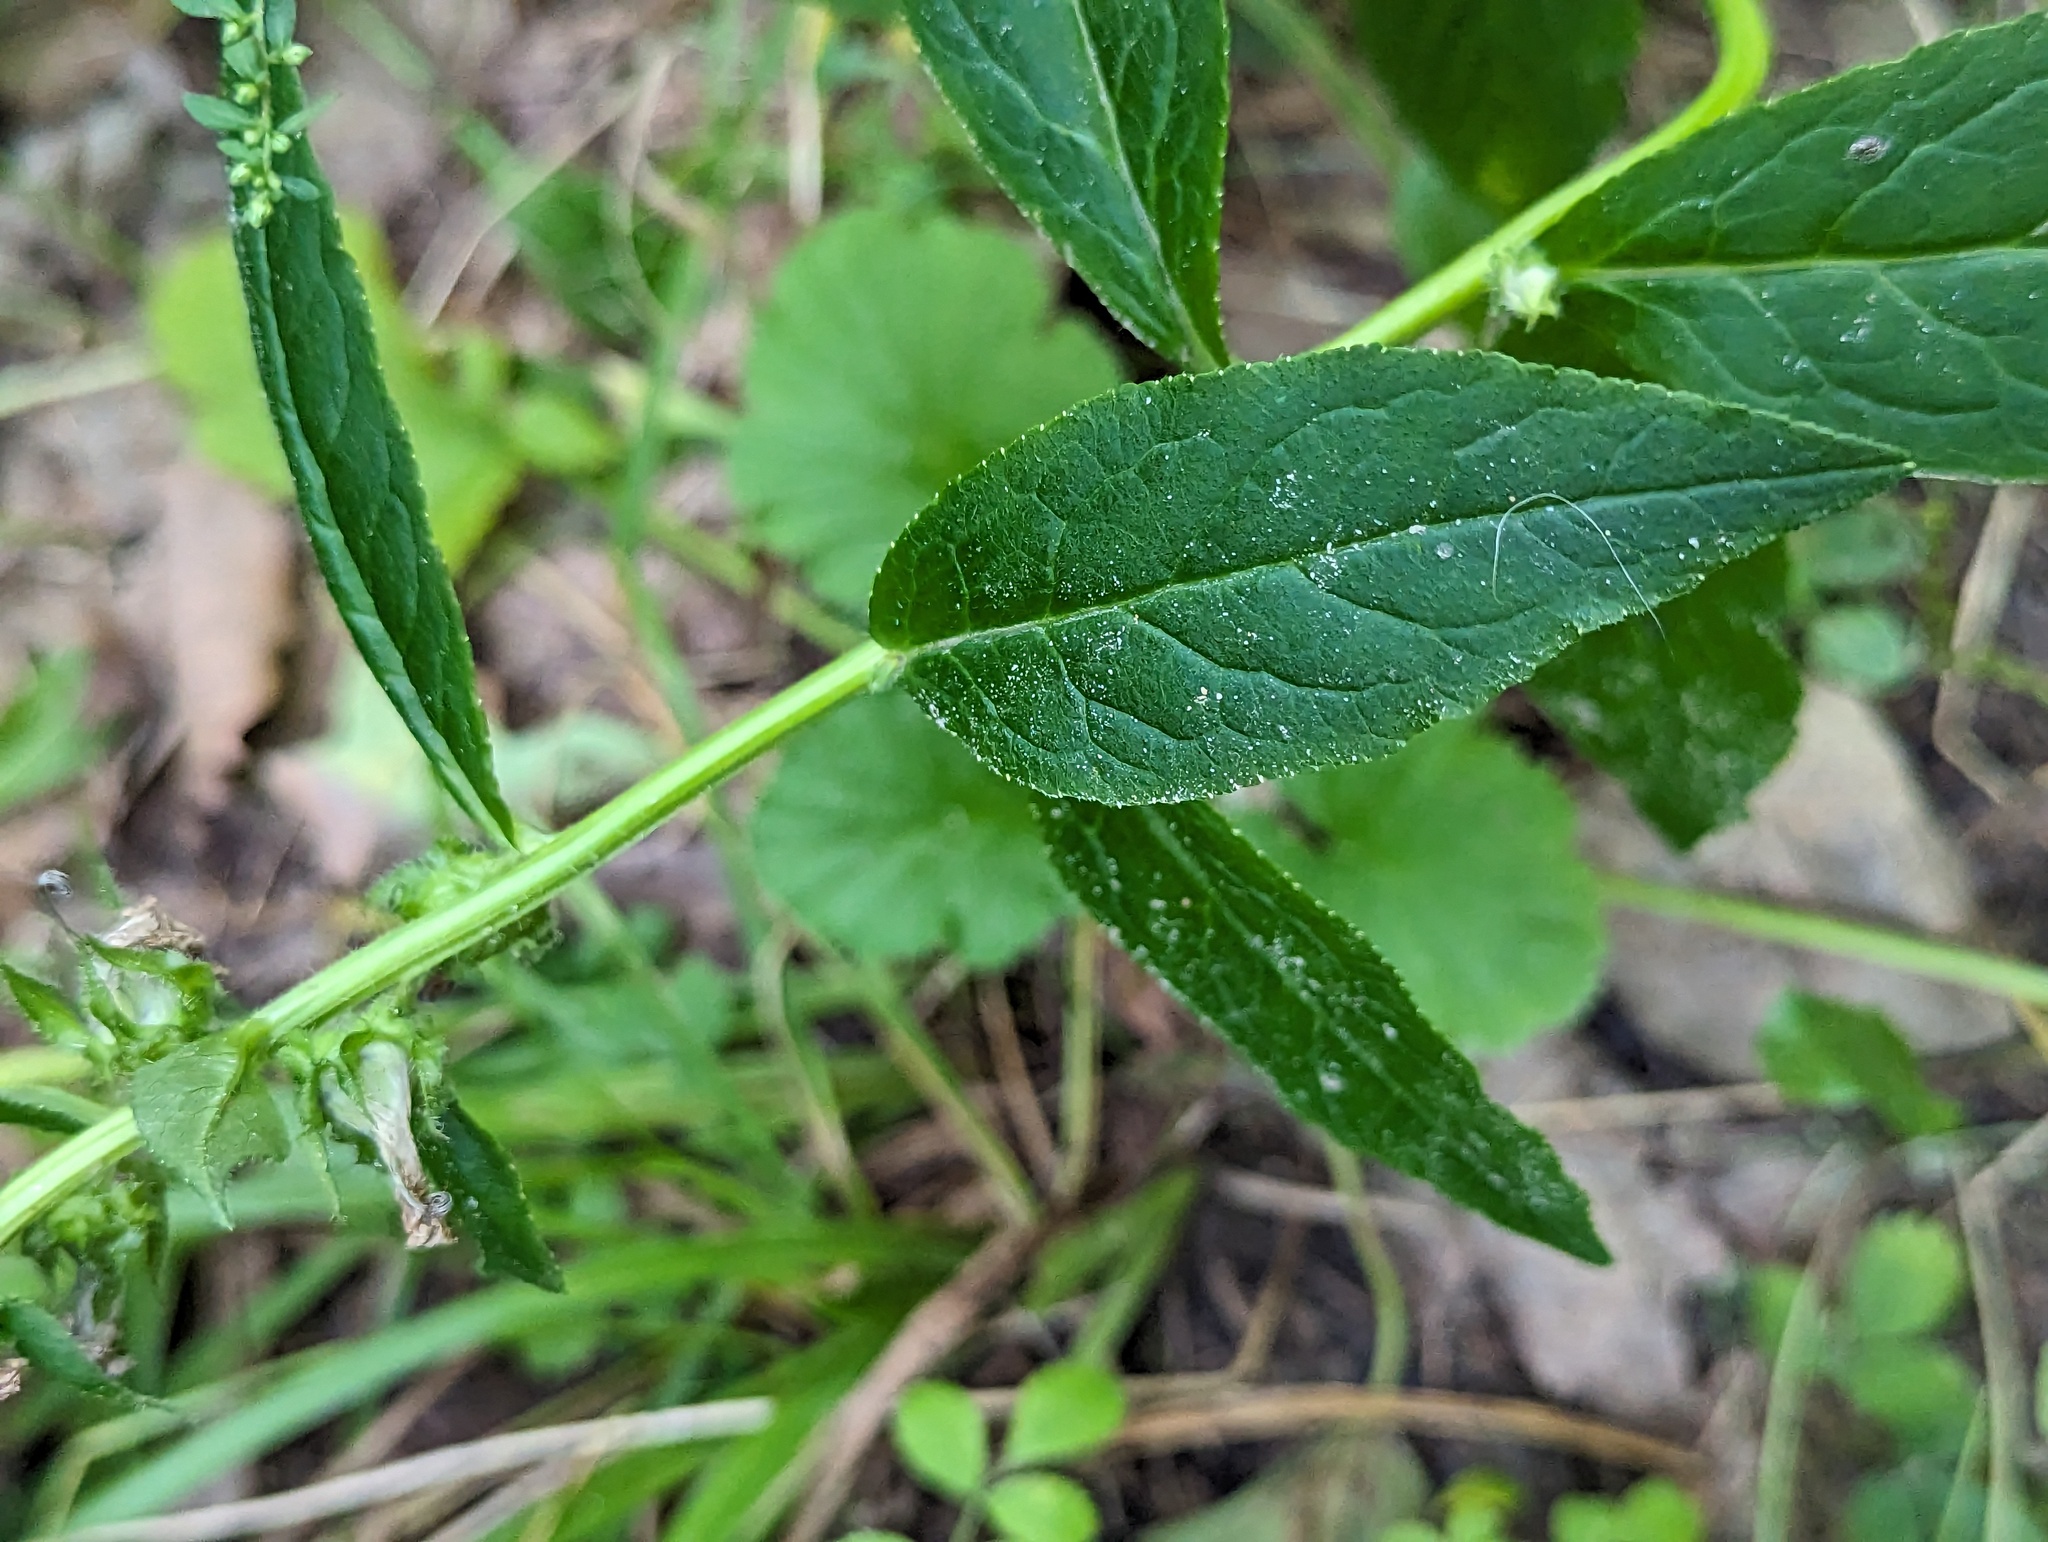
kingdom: Plantae
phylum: Tracheophyta
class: Magnoliopsida
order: Asterales
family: Campanulaceae
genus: Lobelia
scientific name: Lobelia siphilitica
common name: Great lobelia
